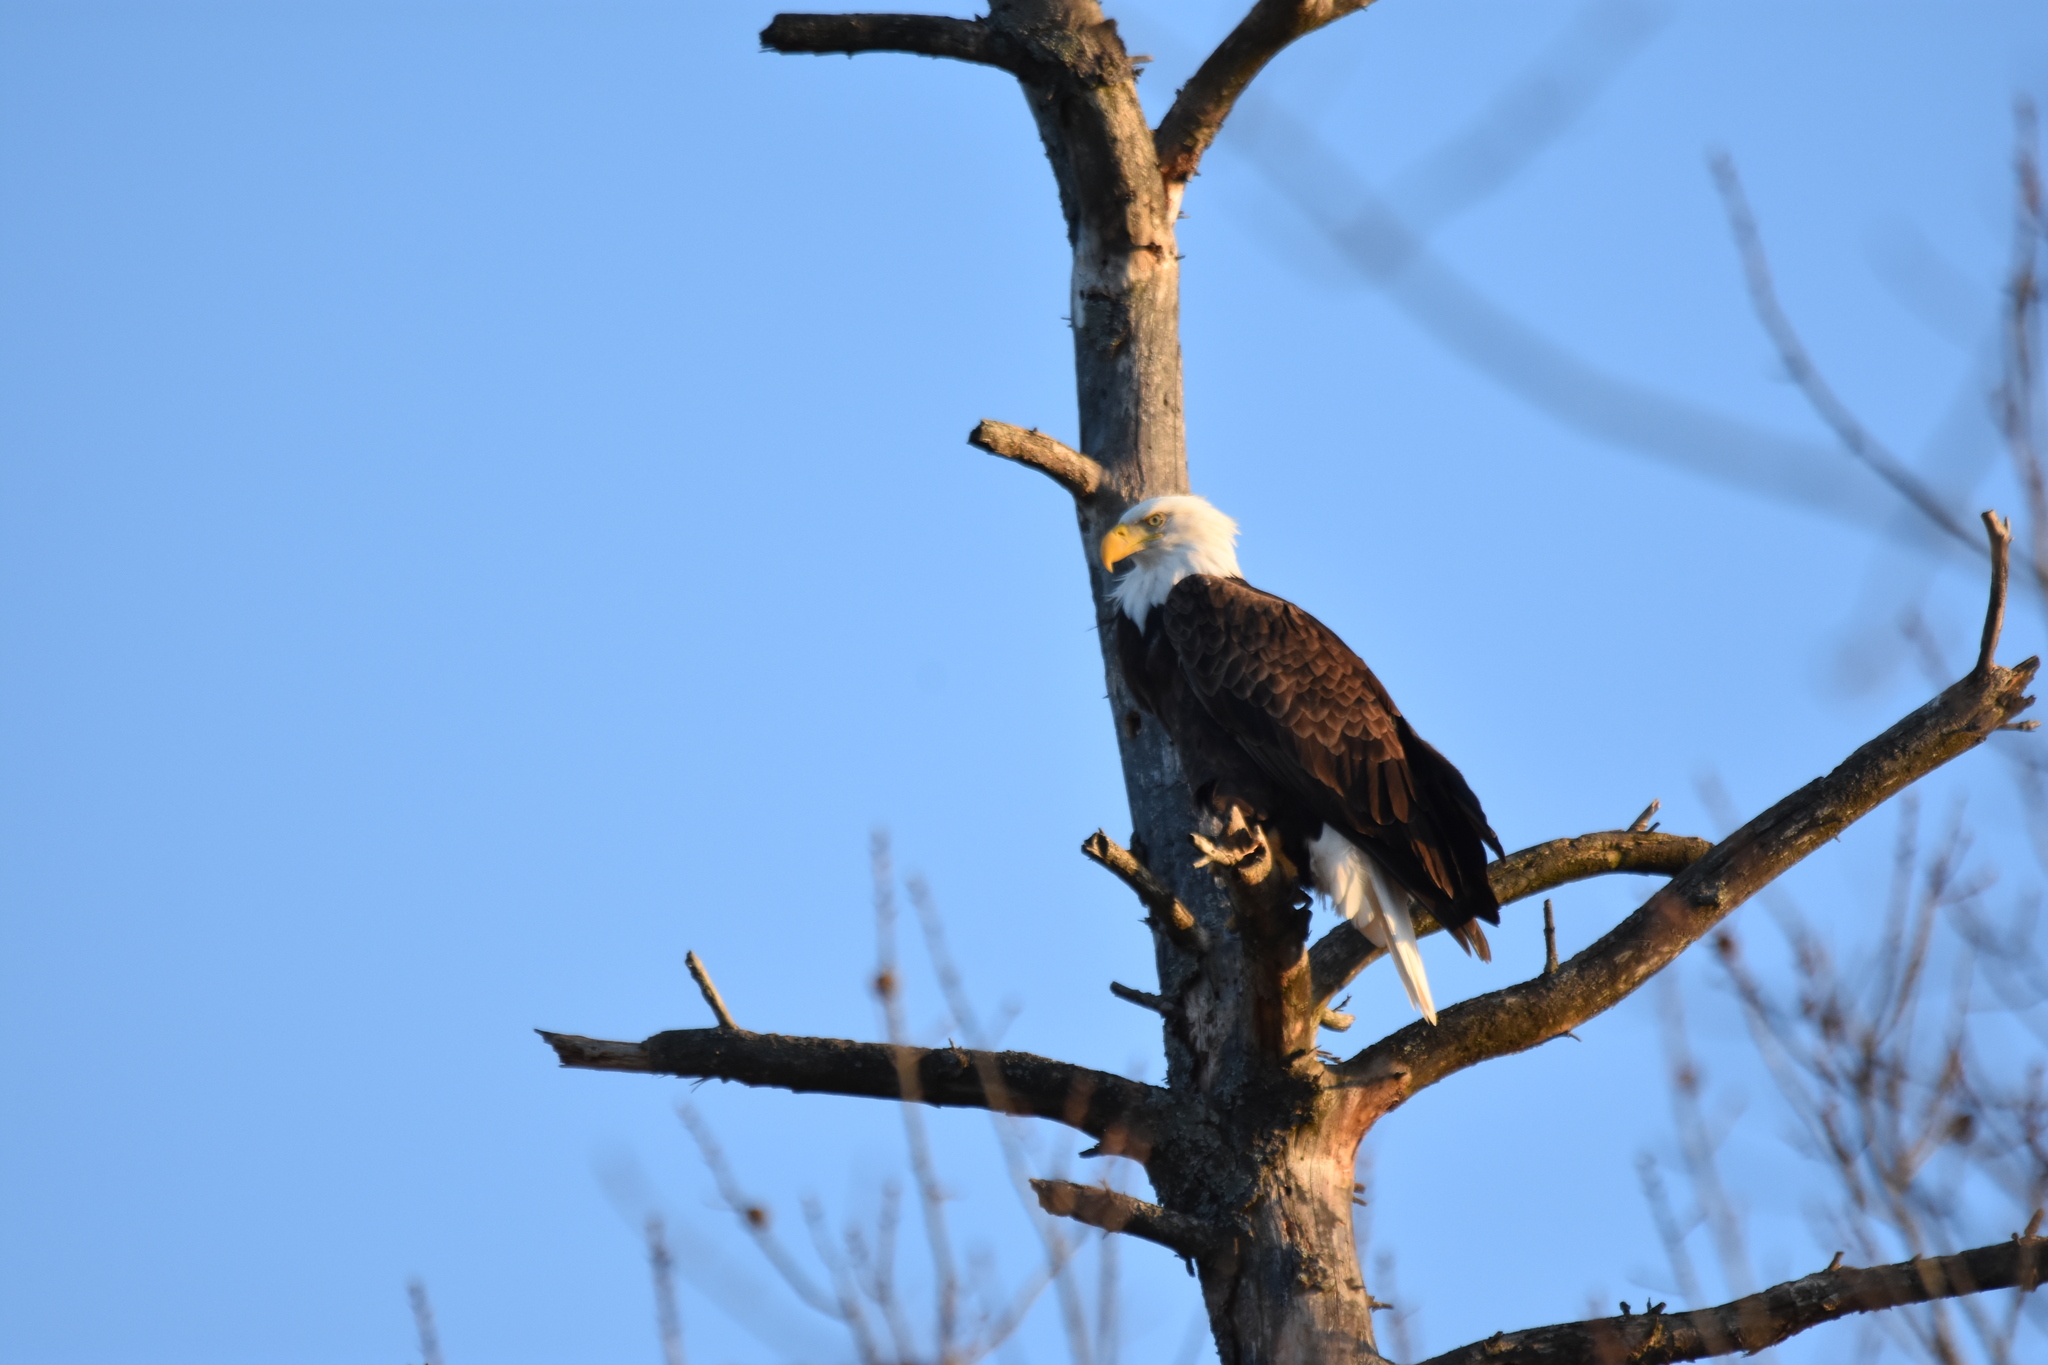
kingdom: Animalia
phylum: Chordata
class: Aves
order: Accipitriformes
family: Accipitridae
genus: Haliaeetus
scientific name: Haliaeetus leucocephalus
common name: Bald eagle
